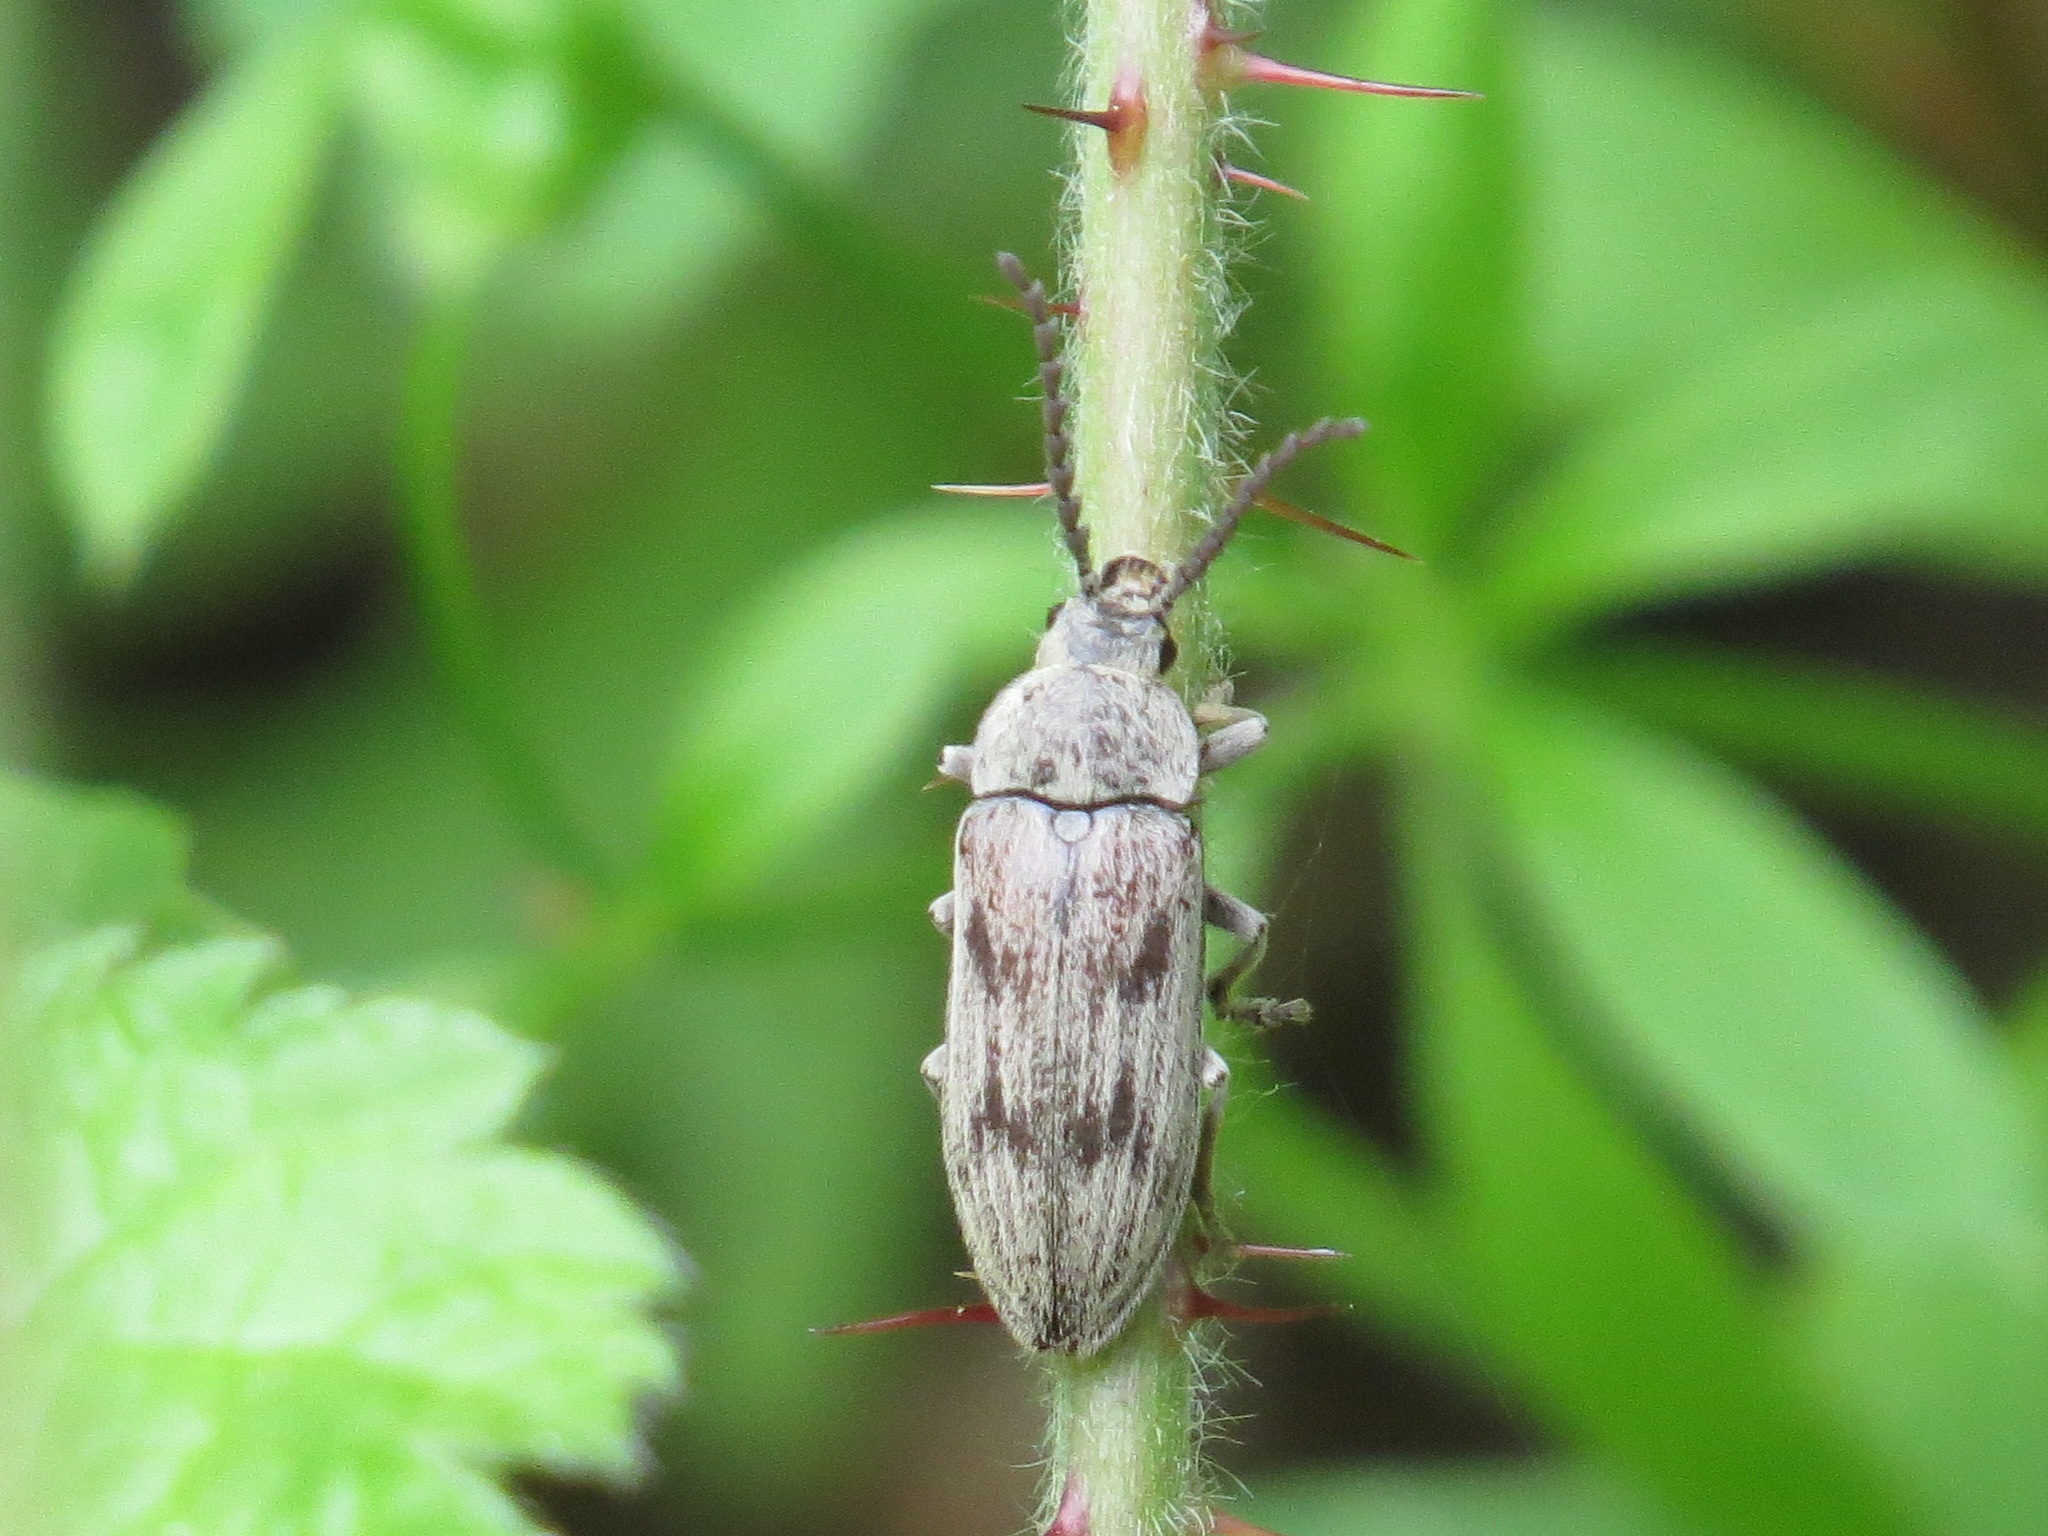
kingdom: Animalia
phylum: Arthropoda
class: Insecta
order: Coleoptera
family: Dascillidae
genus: Dascillus
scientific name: Dascillus davidsoni
